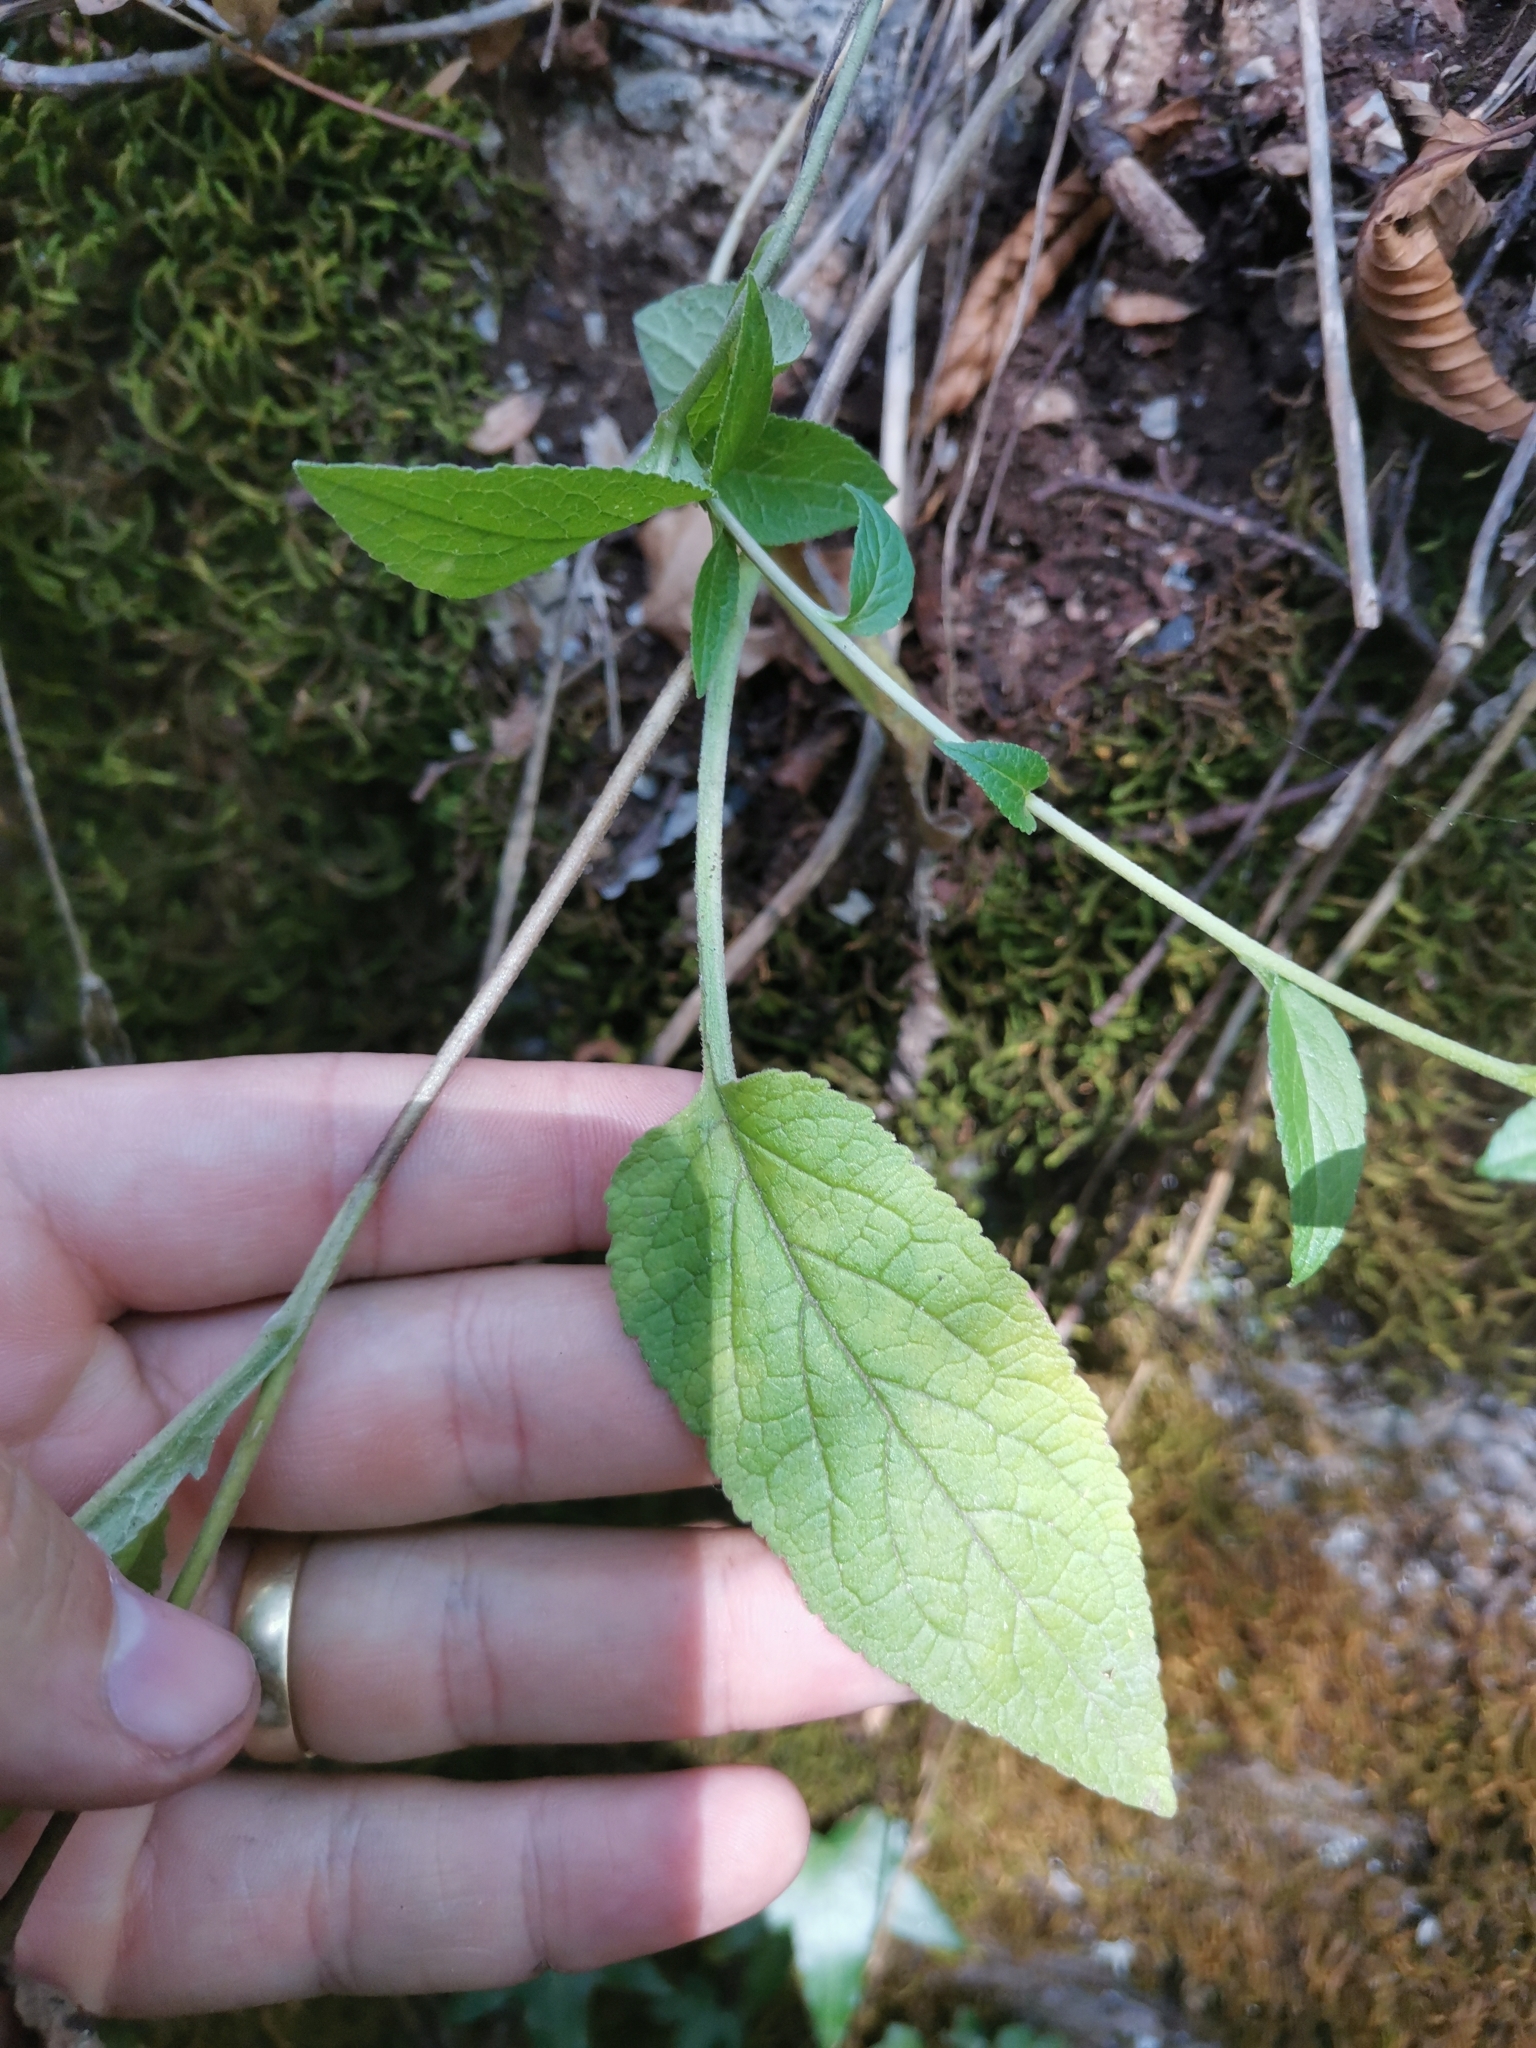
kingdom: Plantae
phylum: Tracheophyta
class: Magnoliopsida
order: Asterales
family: Campanulaceae
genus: Campanula
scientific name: Campanula bononiensis
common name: Pale bellflower
